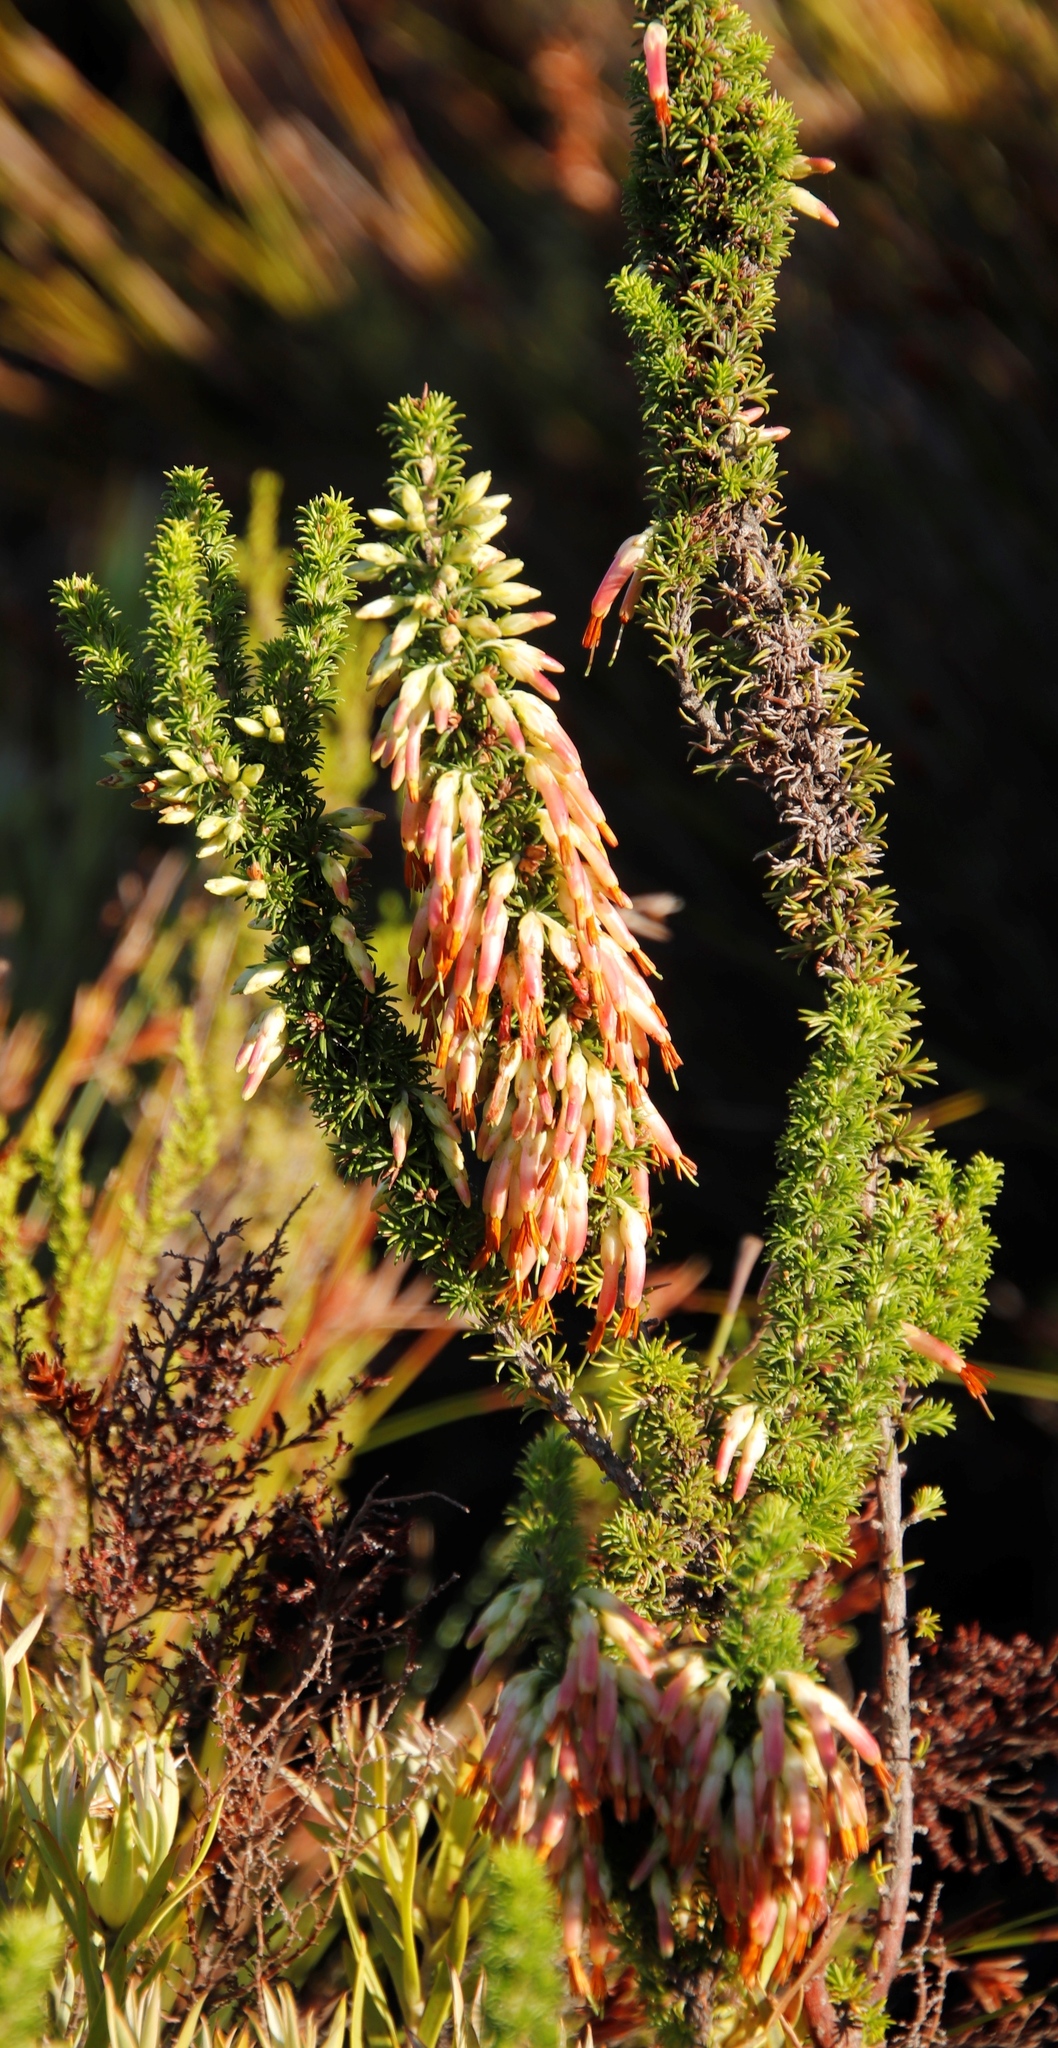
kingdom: Plantae
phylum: Tracheophyta
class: Magnoliopsida
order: Ericales
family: Ericaceae
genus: Erica
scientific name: Erica coccinea
